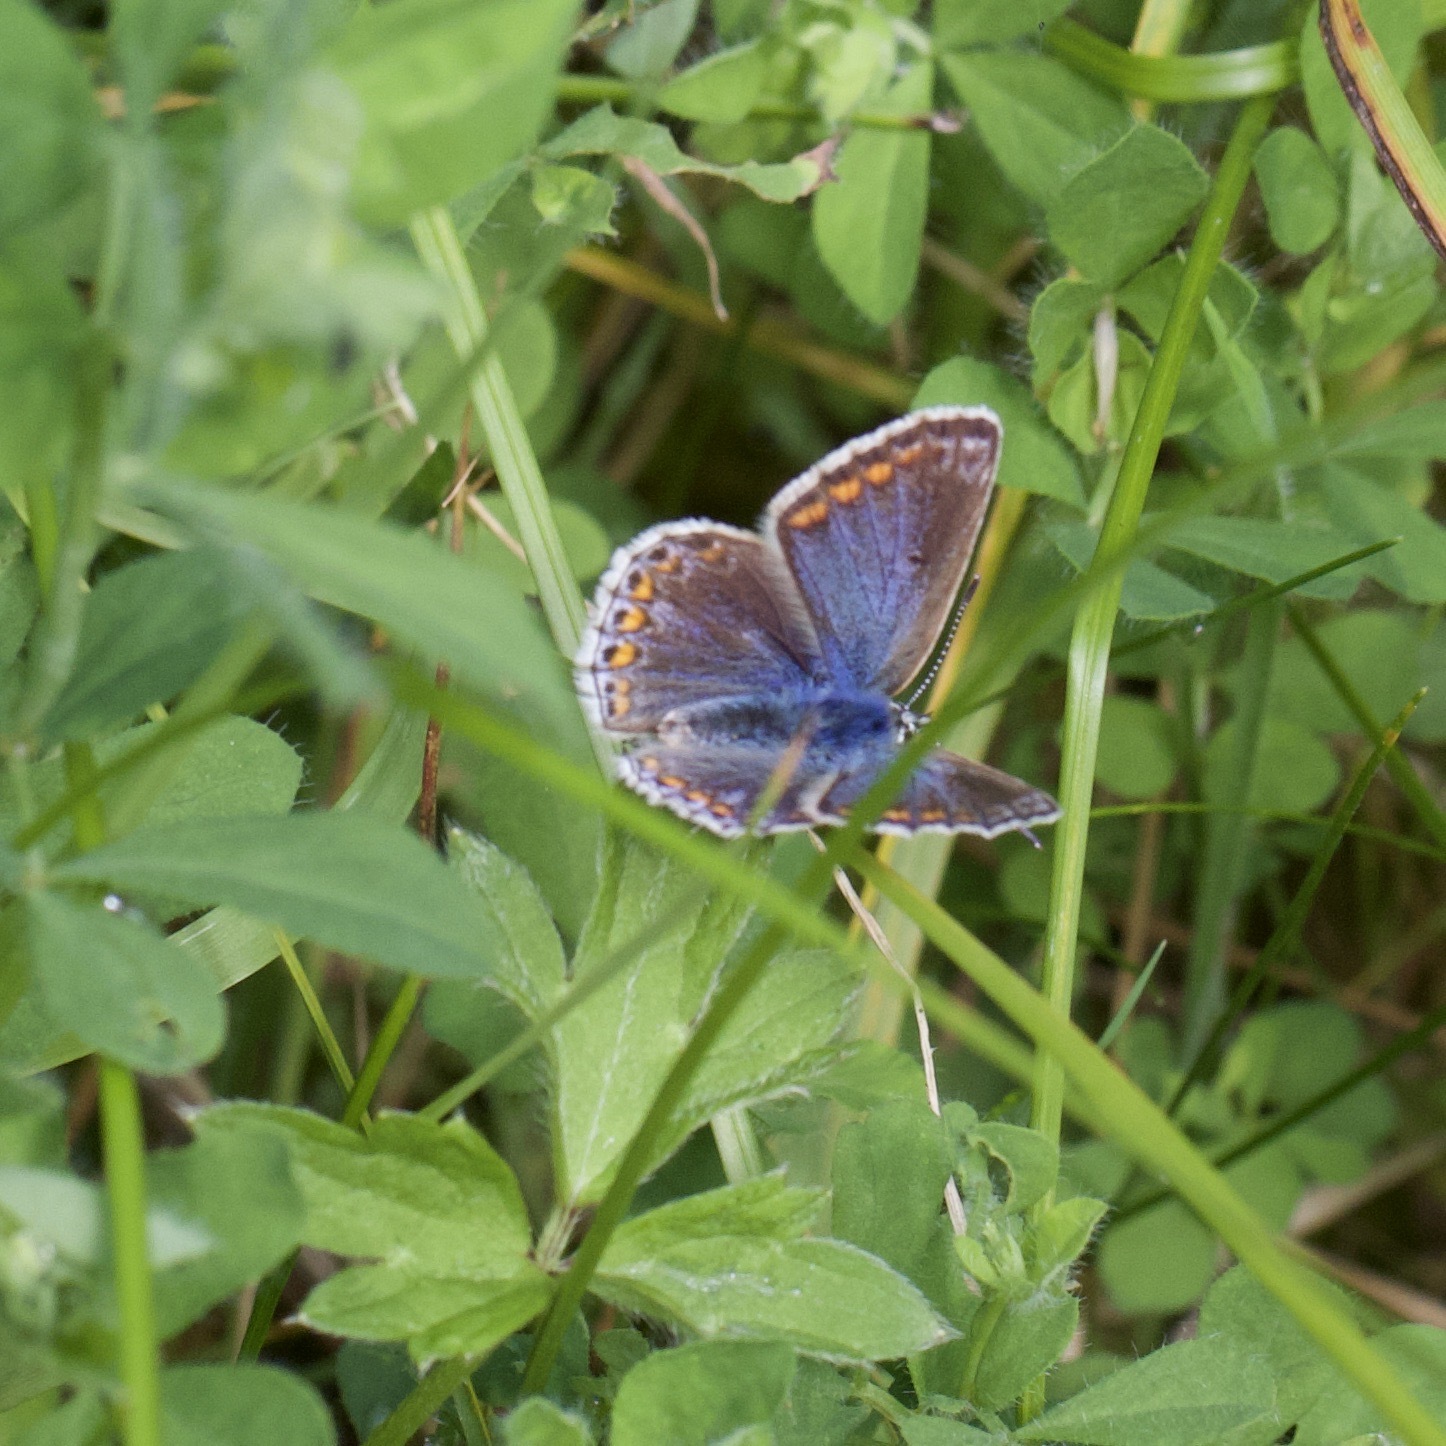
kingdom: Animalia
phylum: Arthropoda
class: Insecta
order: Lepidoptera
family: Lycaenidae
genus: Polyommatus
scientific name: Polyommatus icarus
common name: Common blue
